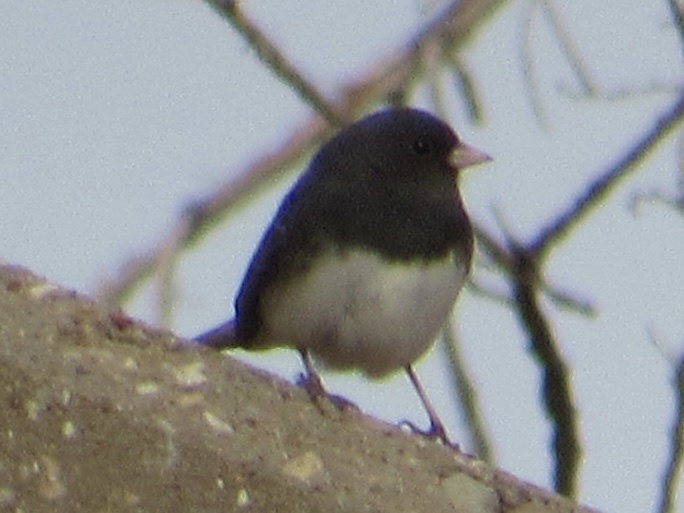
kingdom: Animalia
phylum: Chordata
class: Aves
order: Passeriformes
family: Passerellidae
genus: Junco
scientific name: Junco hyemalis
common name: Dark-eyed junco
